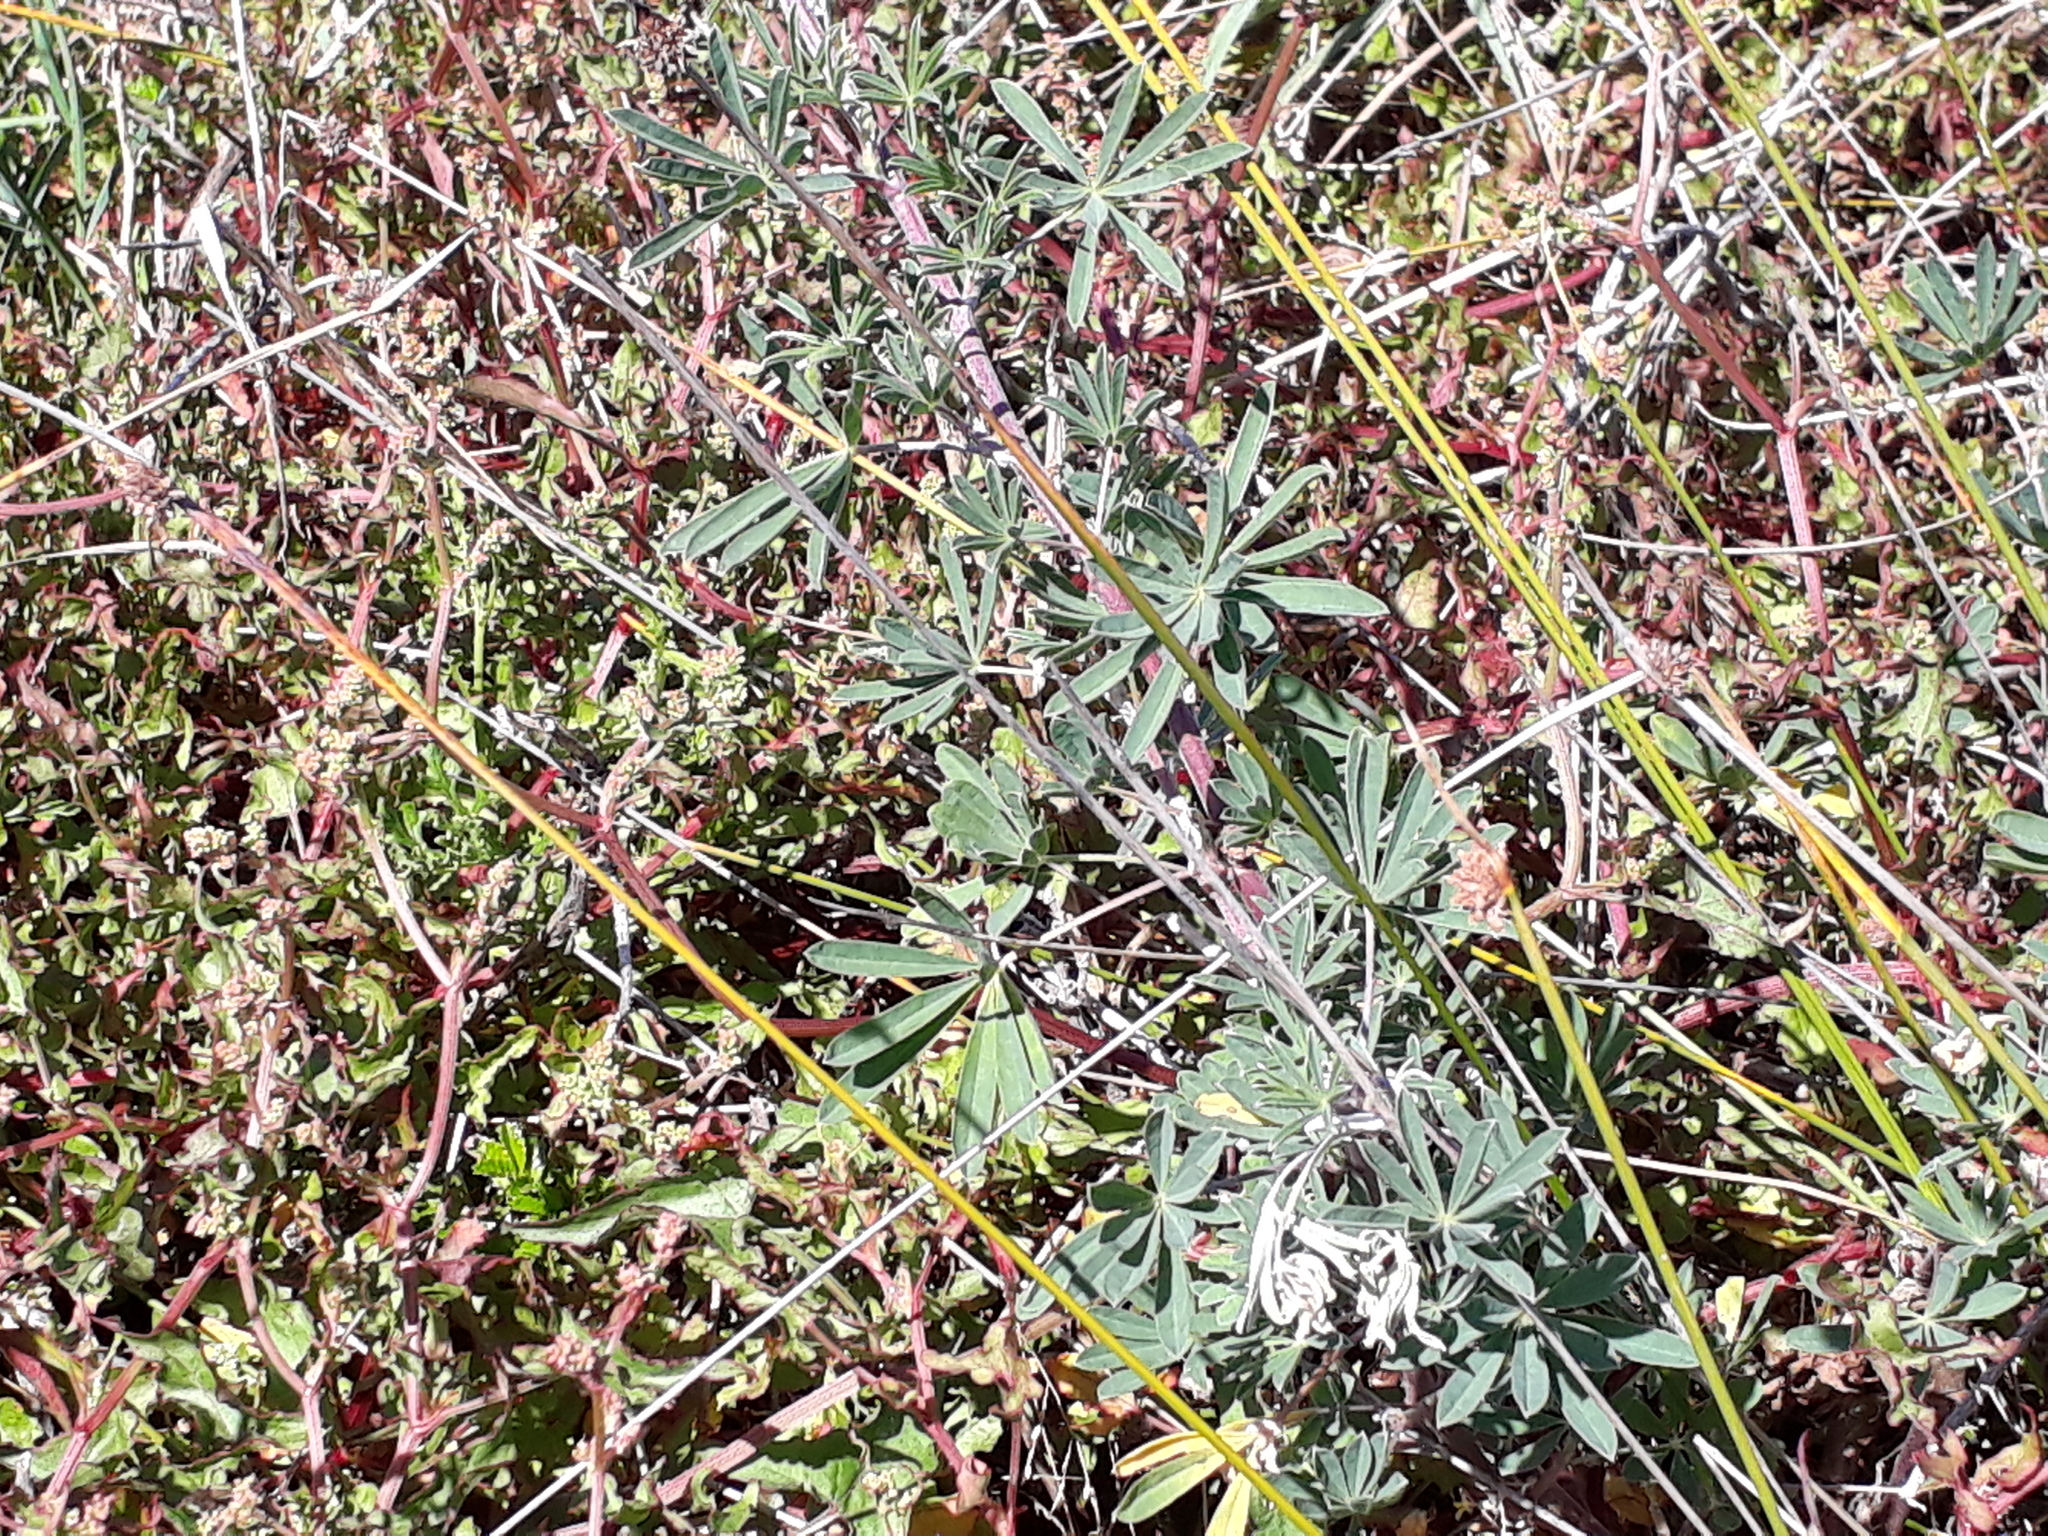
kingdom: Plantae
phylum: Tracheophyta
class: Magnoliopsida
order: Fabales
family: Fabaceae
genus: Lupinus
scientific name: Lupinus arboreus
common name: Yellow bush lupine
